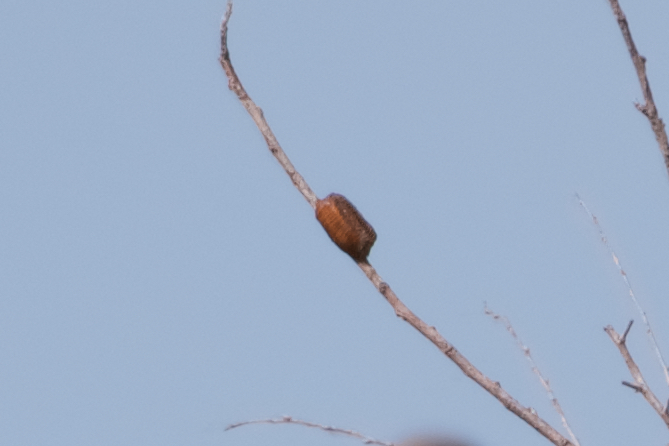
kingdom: Animalia
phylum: Arthropoda
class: Insecta
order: Mantodea
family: Mantidae
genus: Stagmomantis
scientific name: Stagmomantis limbata
